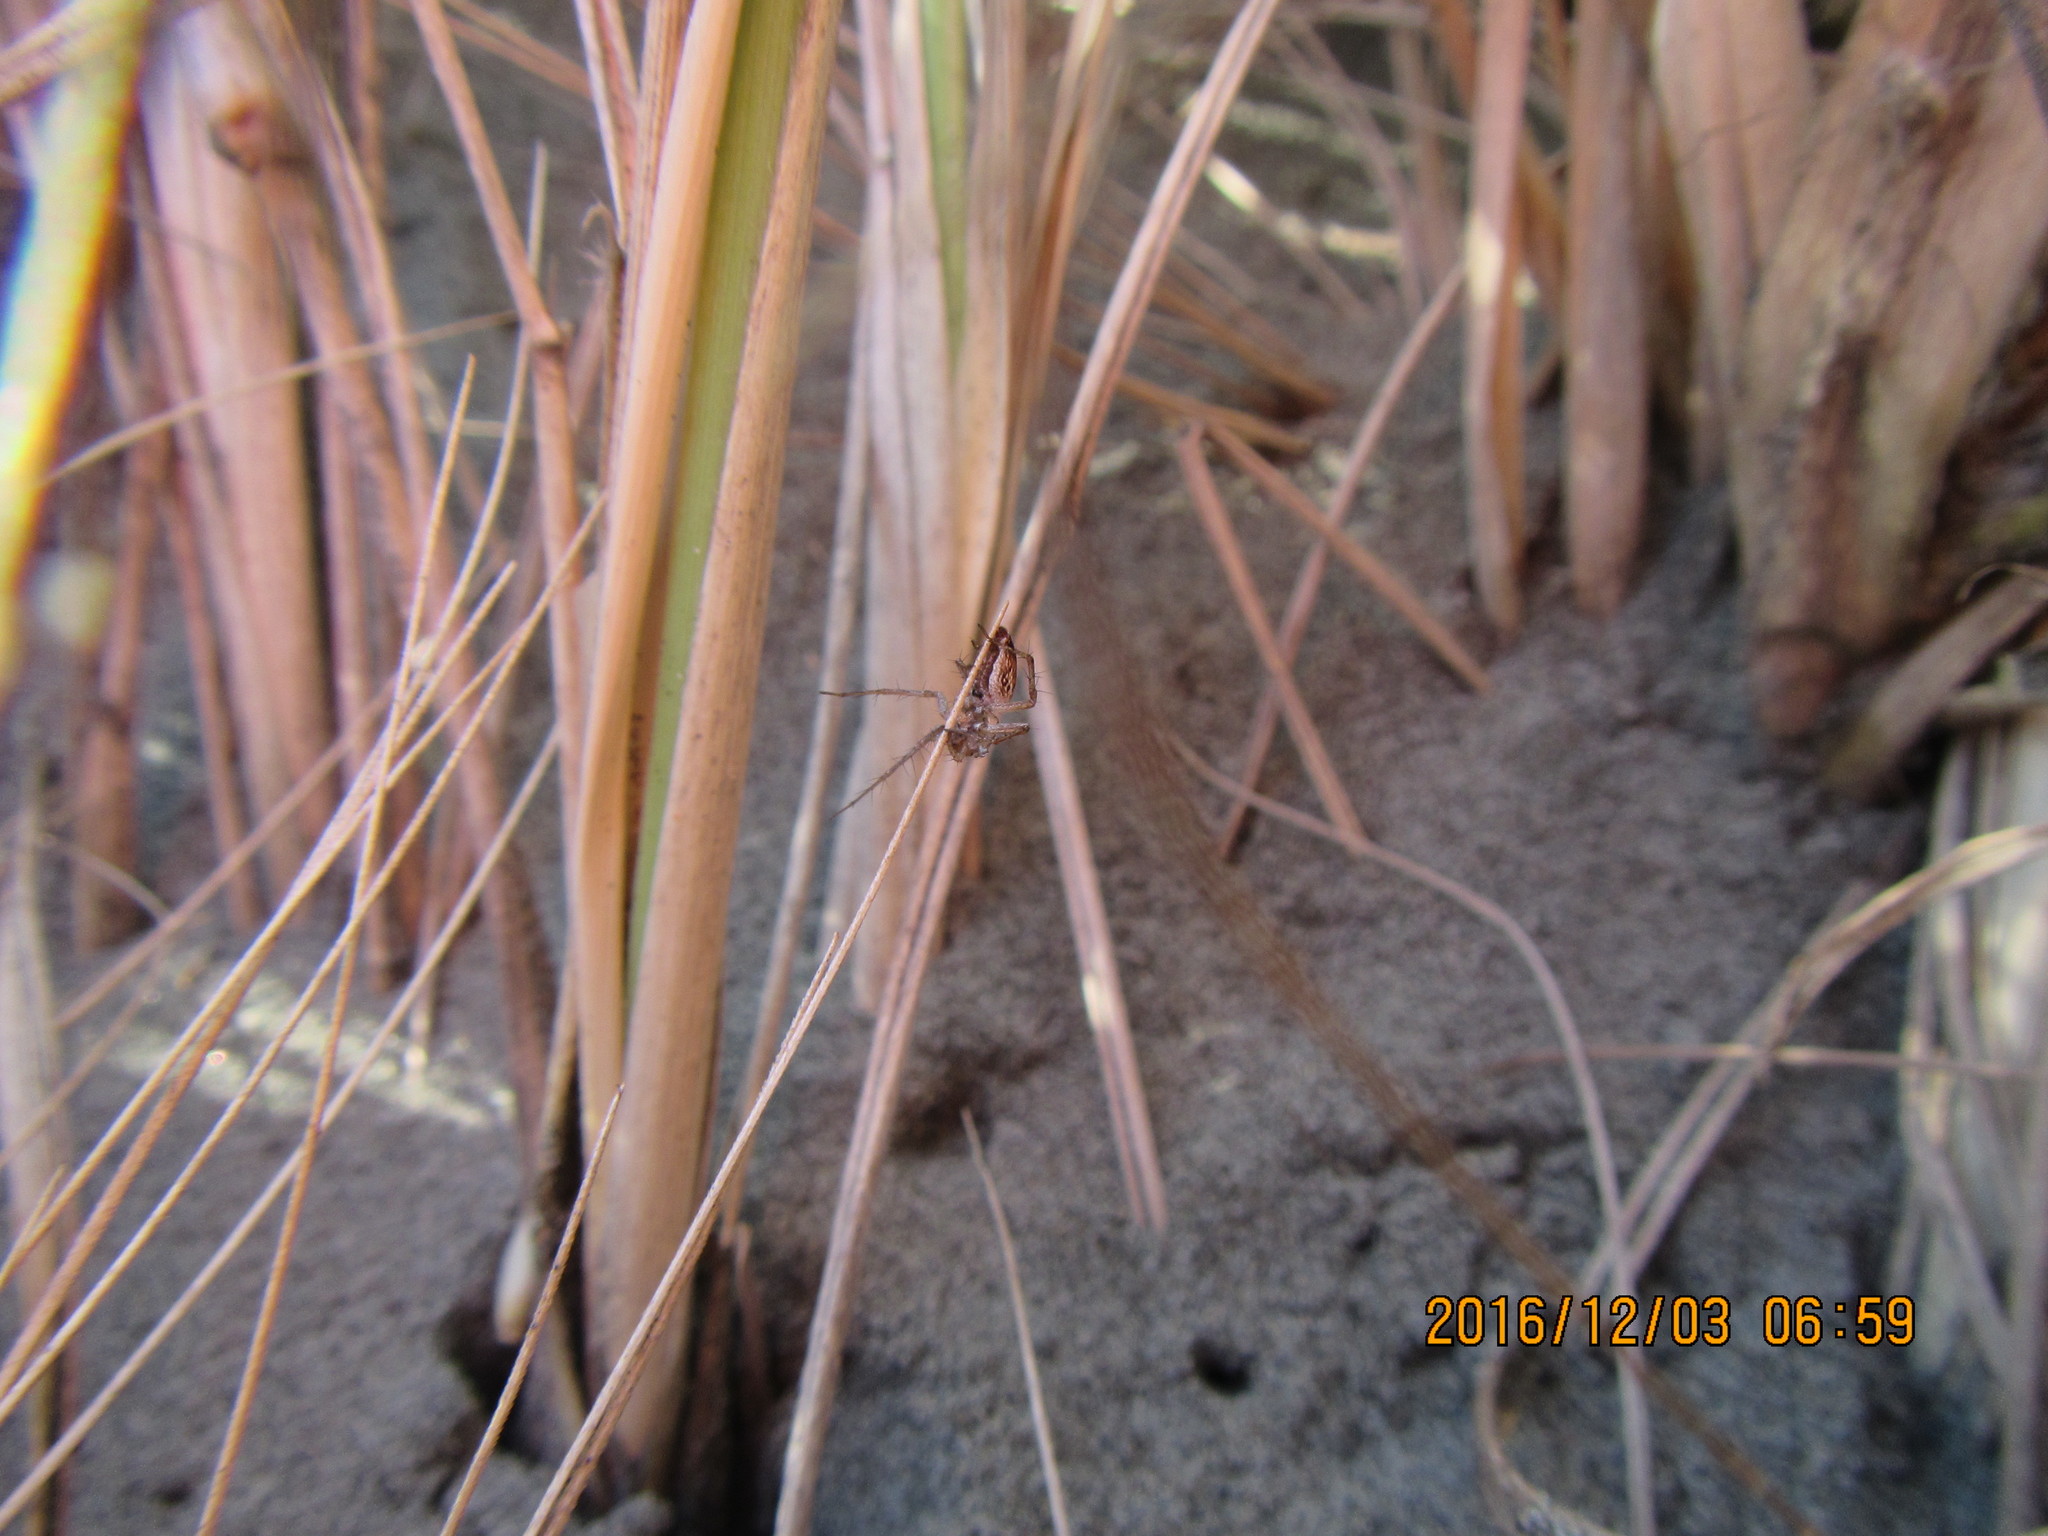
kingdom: Animalia
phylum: Arthropoda
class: Arachnida
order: Araneae
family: Oxyopidae
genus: Oxyopes
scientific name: Oxyopes gracilipes
